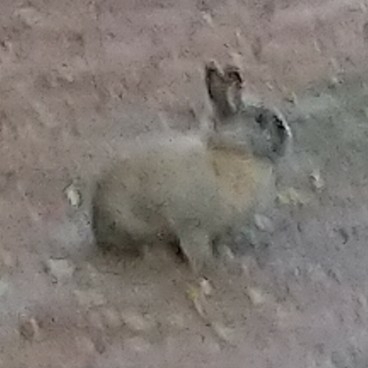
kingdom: Animalia
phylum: Chordata
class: Mammalia
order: Lagomorpha
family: Leporidae
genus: Oryctolagus
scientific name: Oryctolagus cuniculus
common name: European rabbit
